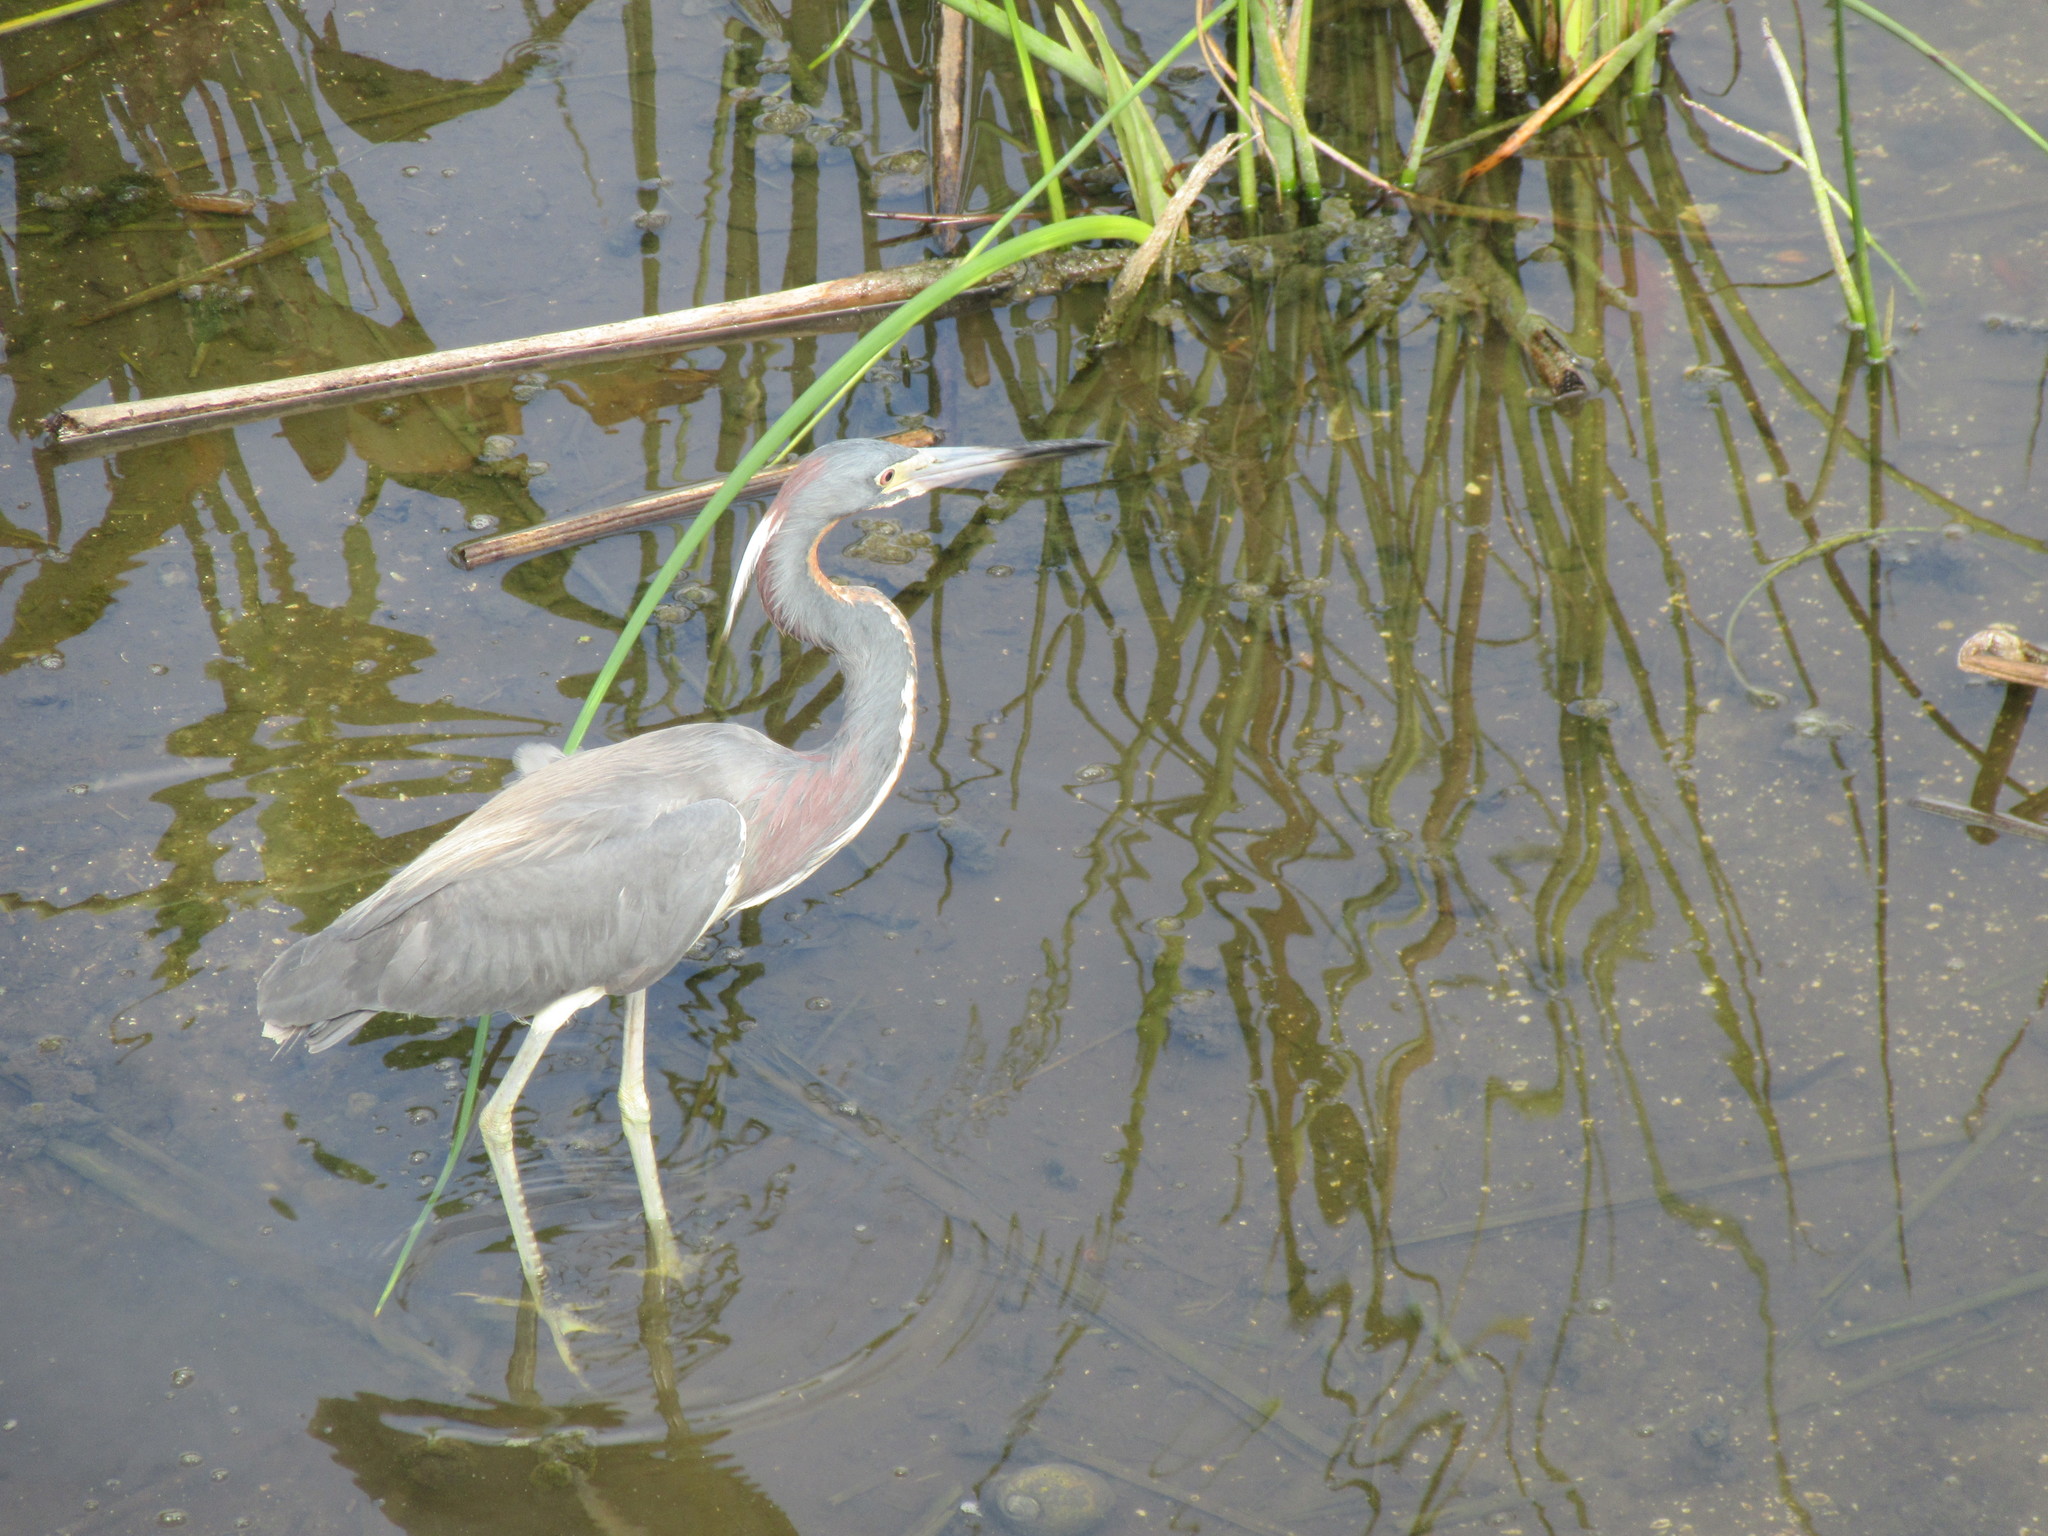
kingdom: Animalia
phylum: Chordata
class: Aves
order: Pelecaniformes
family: Ardeidae
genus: Egretta
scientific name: Egretta tricolor
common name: Tricolored heron
